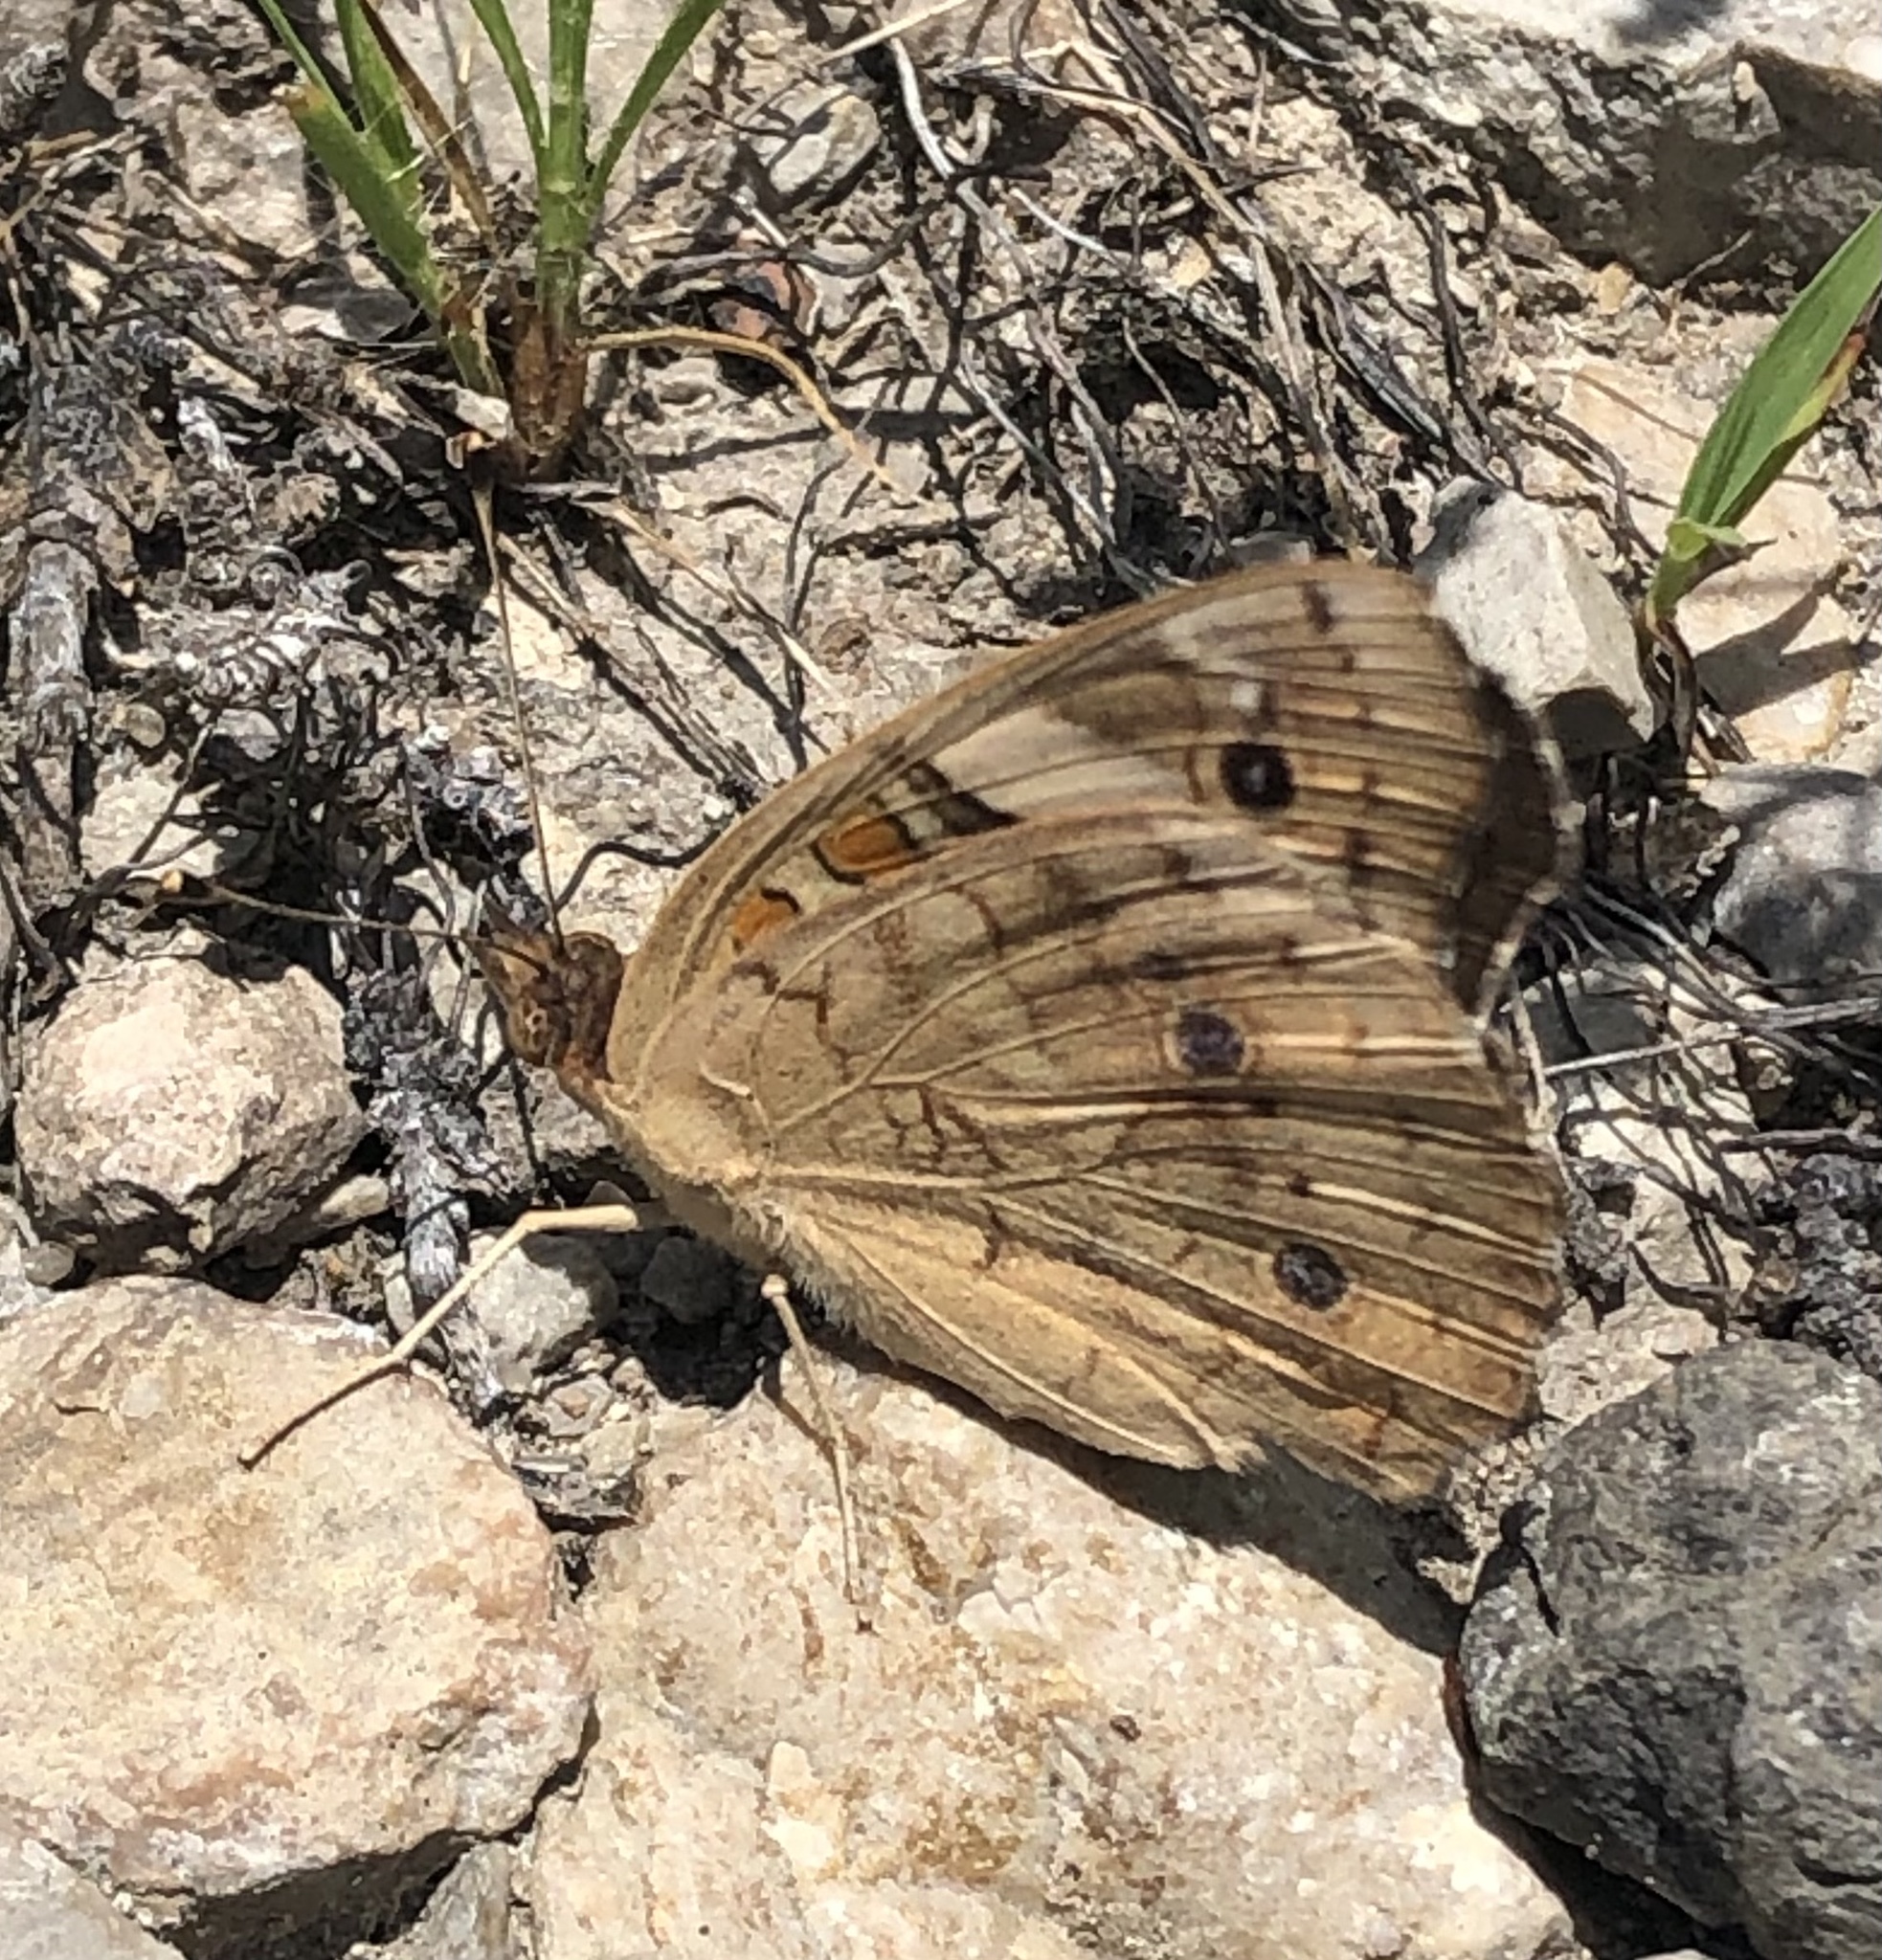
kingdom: Animalia
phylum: Arthropoda
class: Insecta
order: Lepidoptera
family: Nymphalidae
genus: Junonia
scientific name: Junonia coenia
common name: Common buckeye
